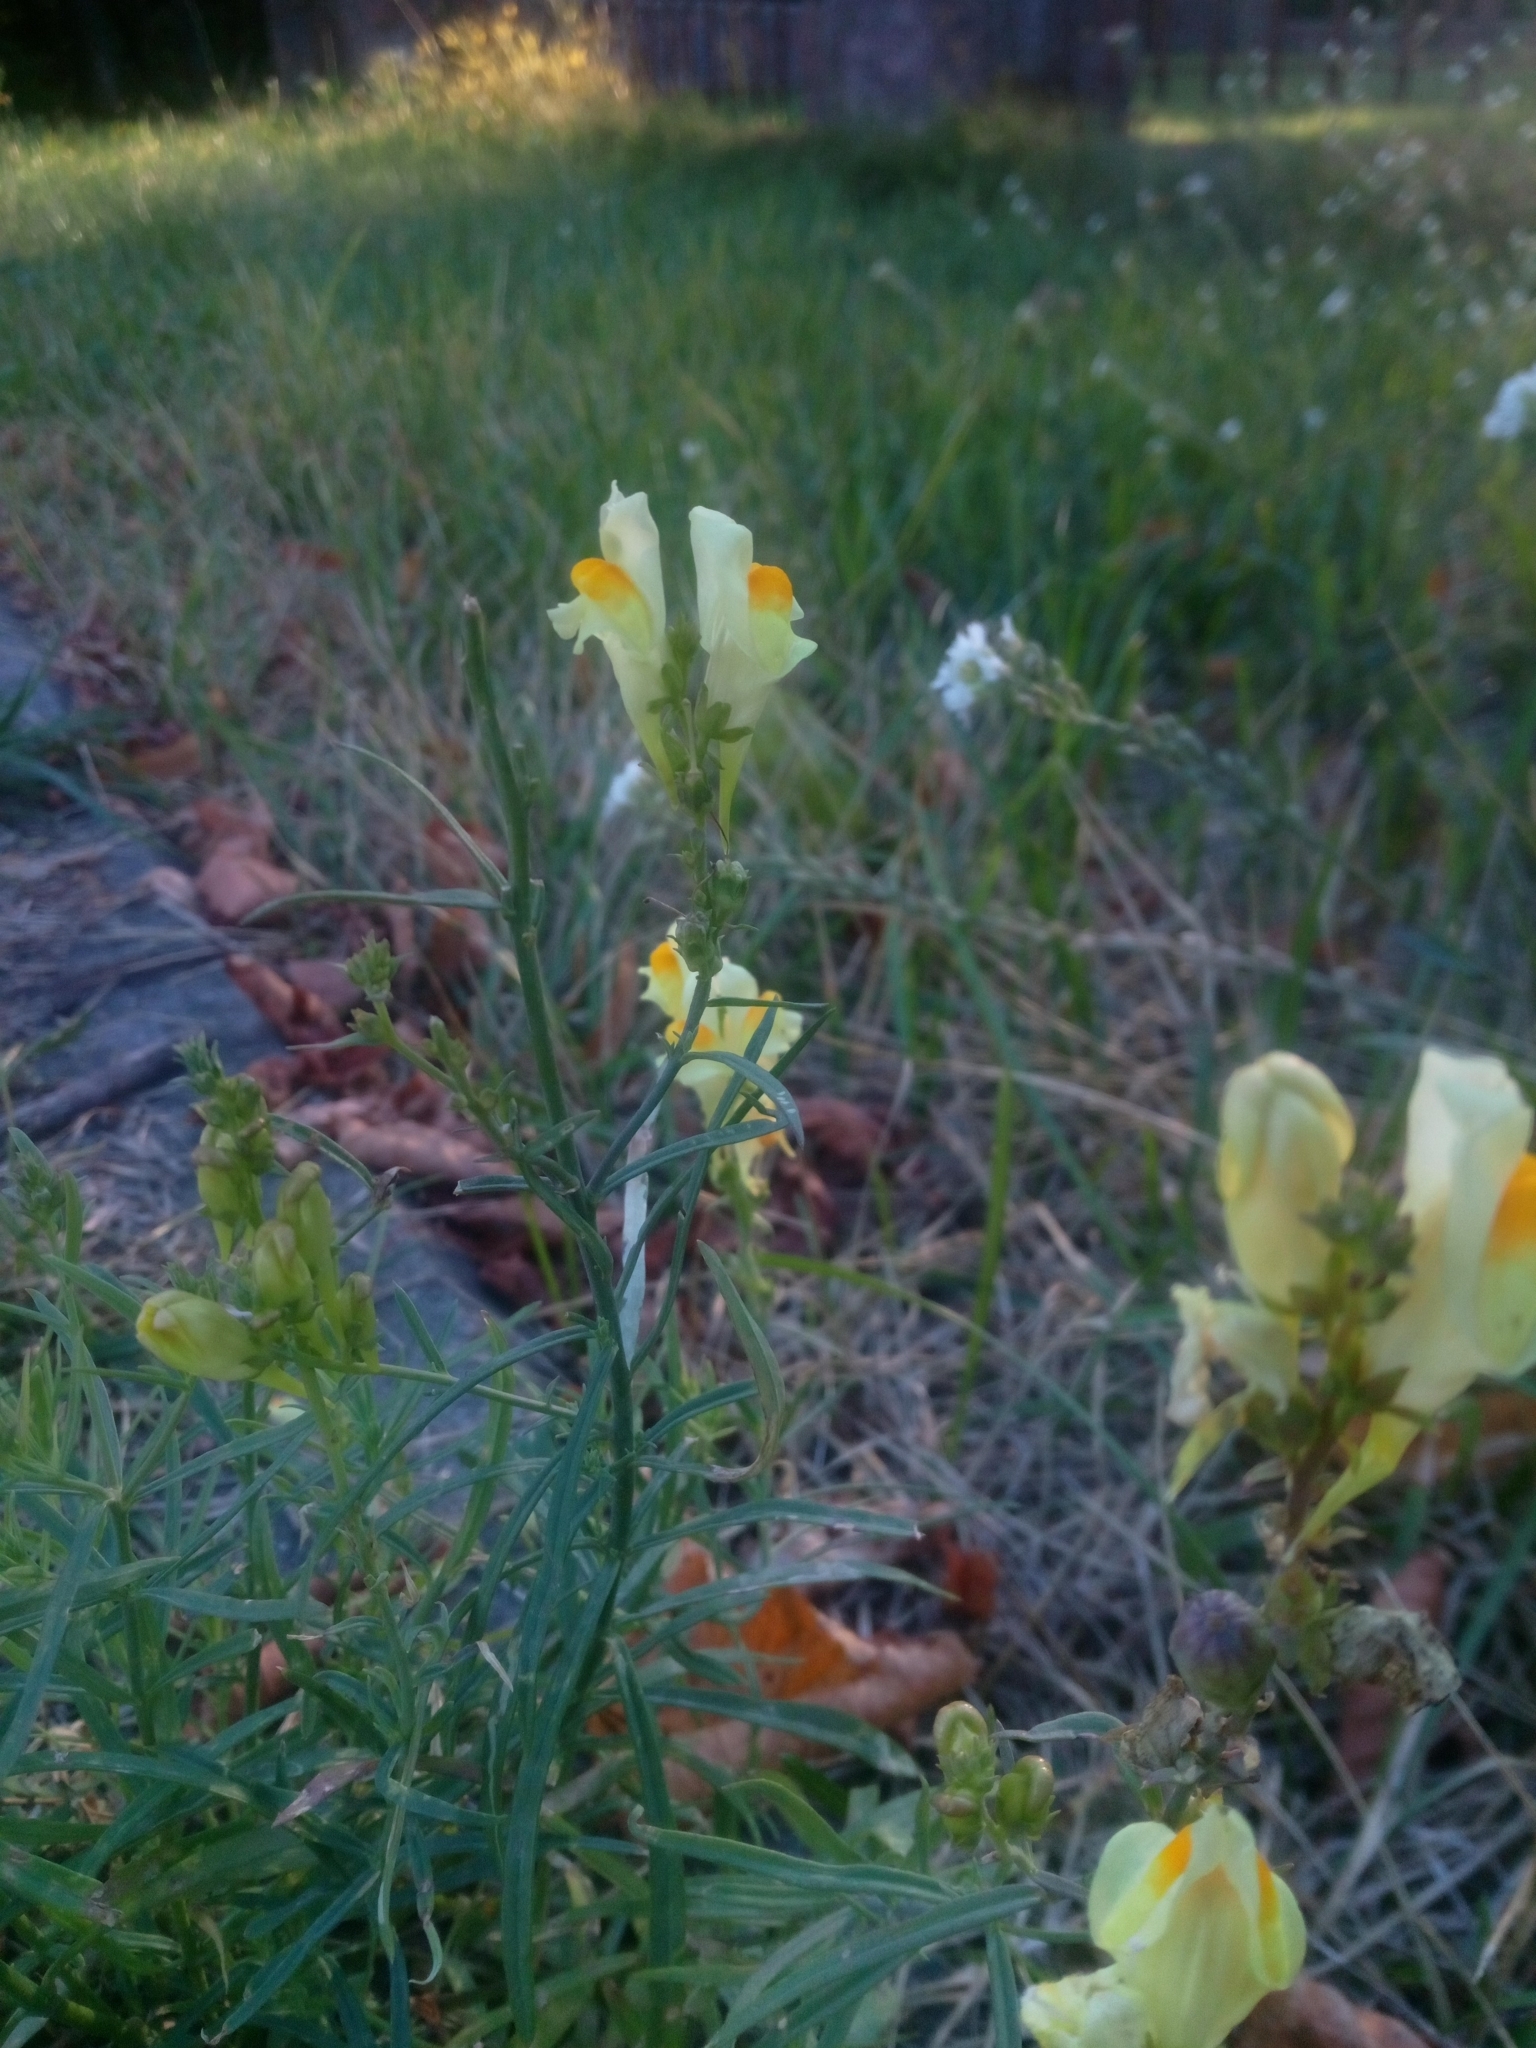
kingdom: Plantae
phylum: Tracheophyta
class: Magnoliopsida
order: Lamiales
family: Plantaginaceae
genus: Linaria
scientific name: Linaria vulgaris
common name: Butter and eggs
